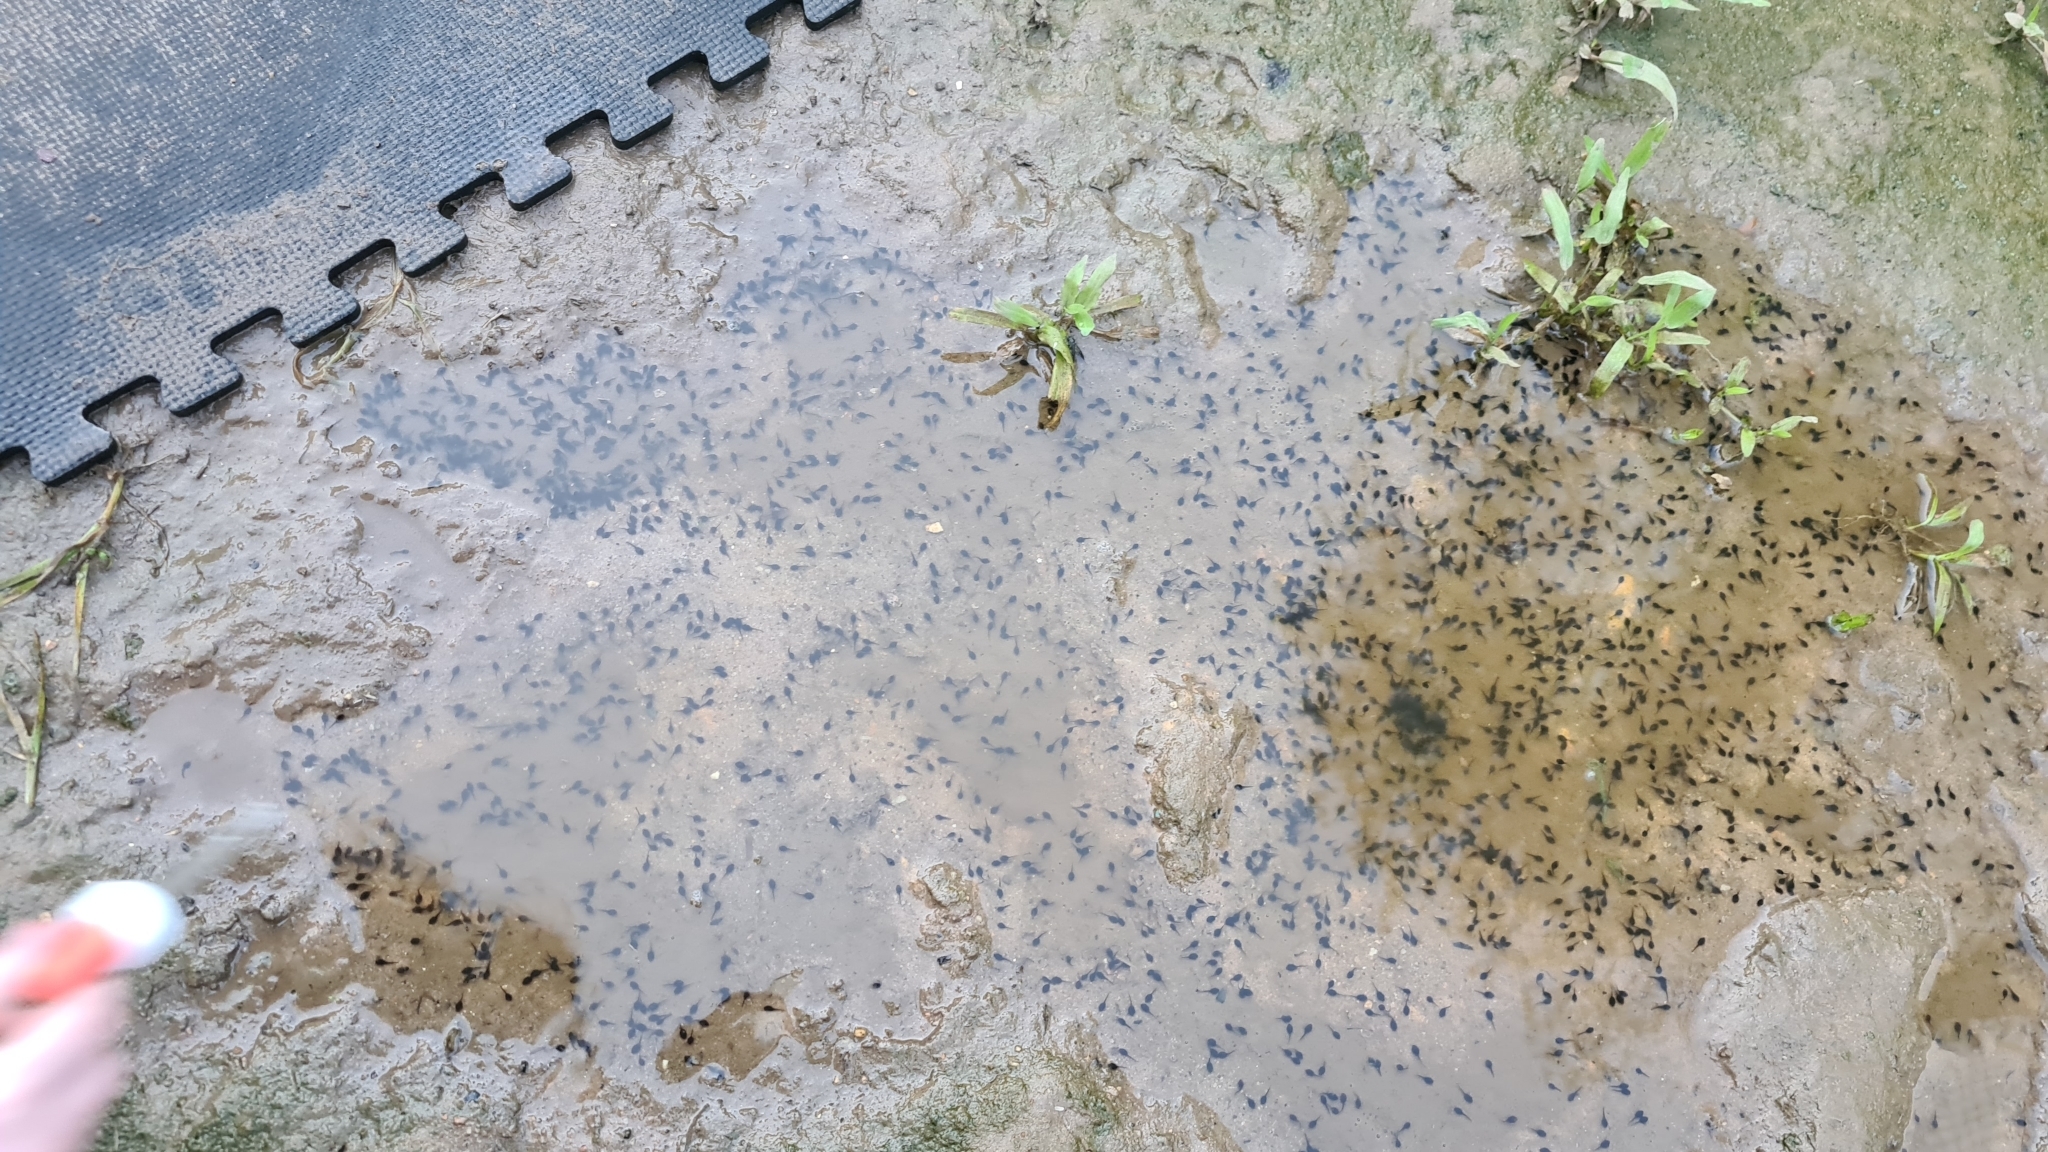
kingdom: Animalia
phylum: Chordata
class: Amphibia
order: Anura
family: Bufonidae
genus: Rhinella
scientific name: Rhinella marina
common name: Cane toad
